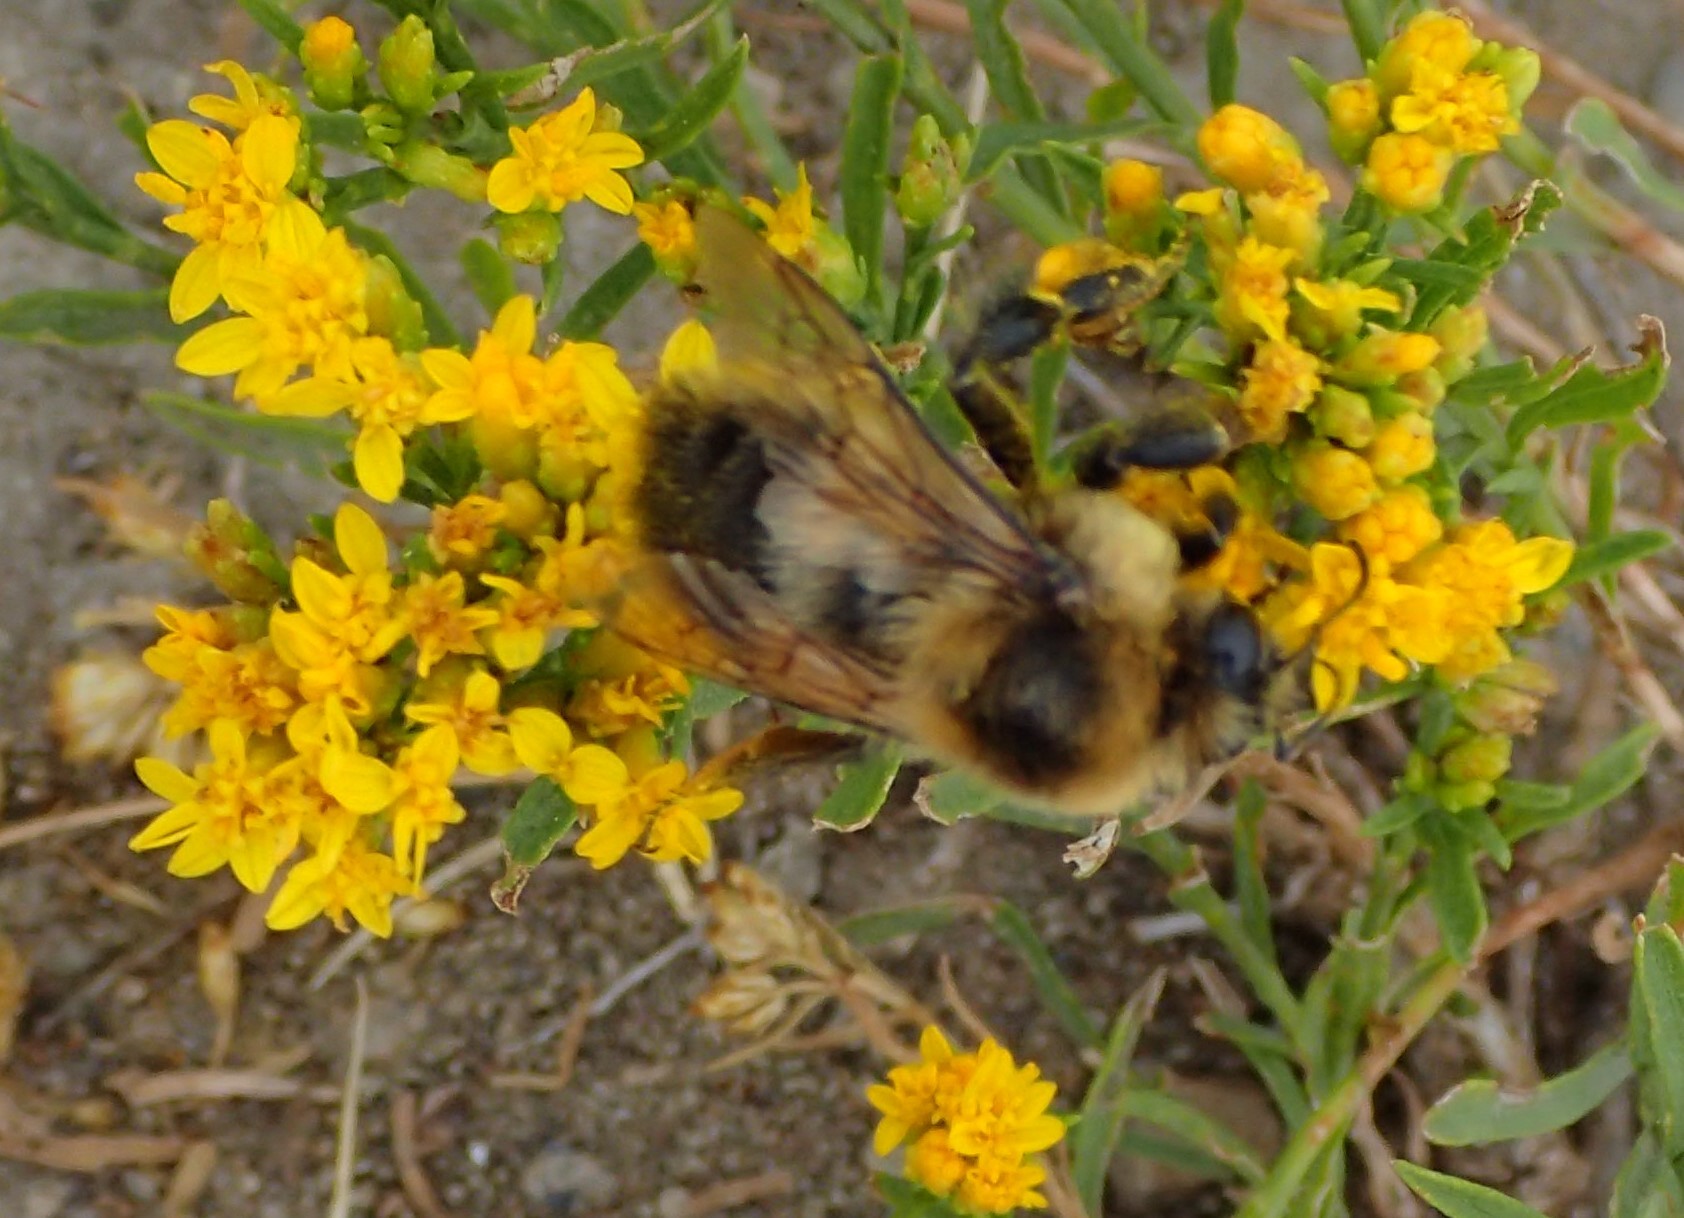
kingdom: Animalia
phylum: Arthropoda
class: Insecta
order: Hymenoptera
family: Apidae
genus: Bombus
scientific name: Bombus rufocinctus
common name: Red-belted bumble bee
